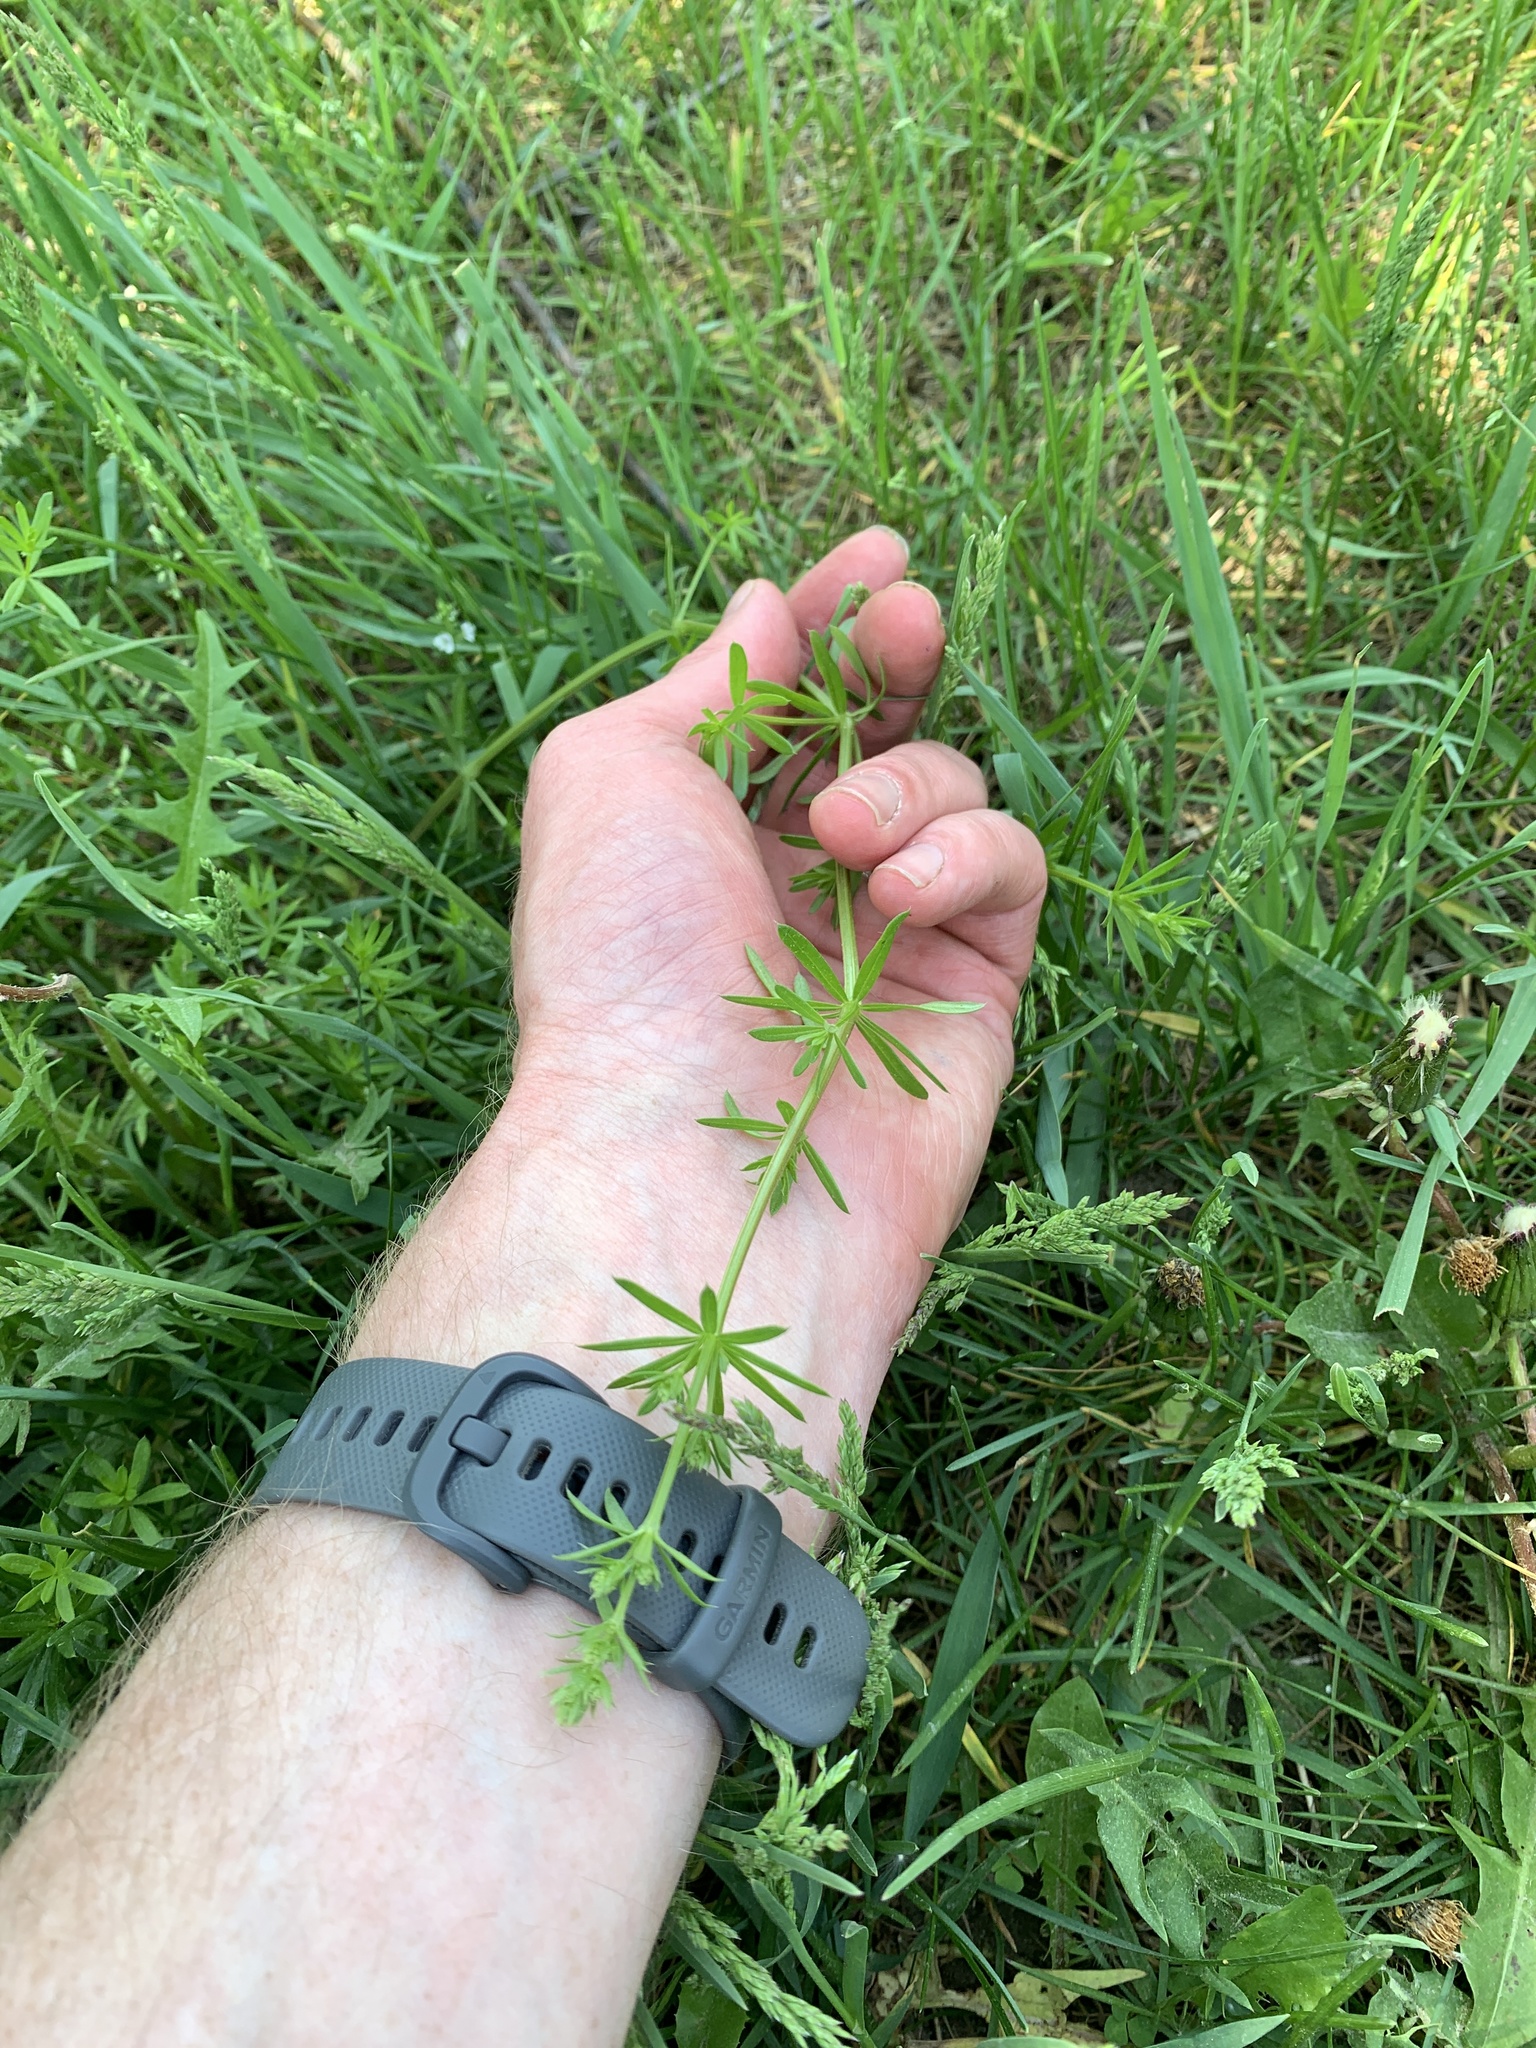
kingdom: Plantae
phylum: Tracheophyta
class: Magnoliopsida
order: Gentianales
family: Rubiaceae
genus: Galium
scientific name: Galium mollugo
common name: Hedge bedstraw
